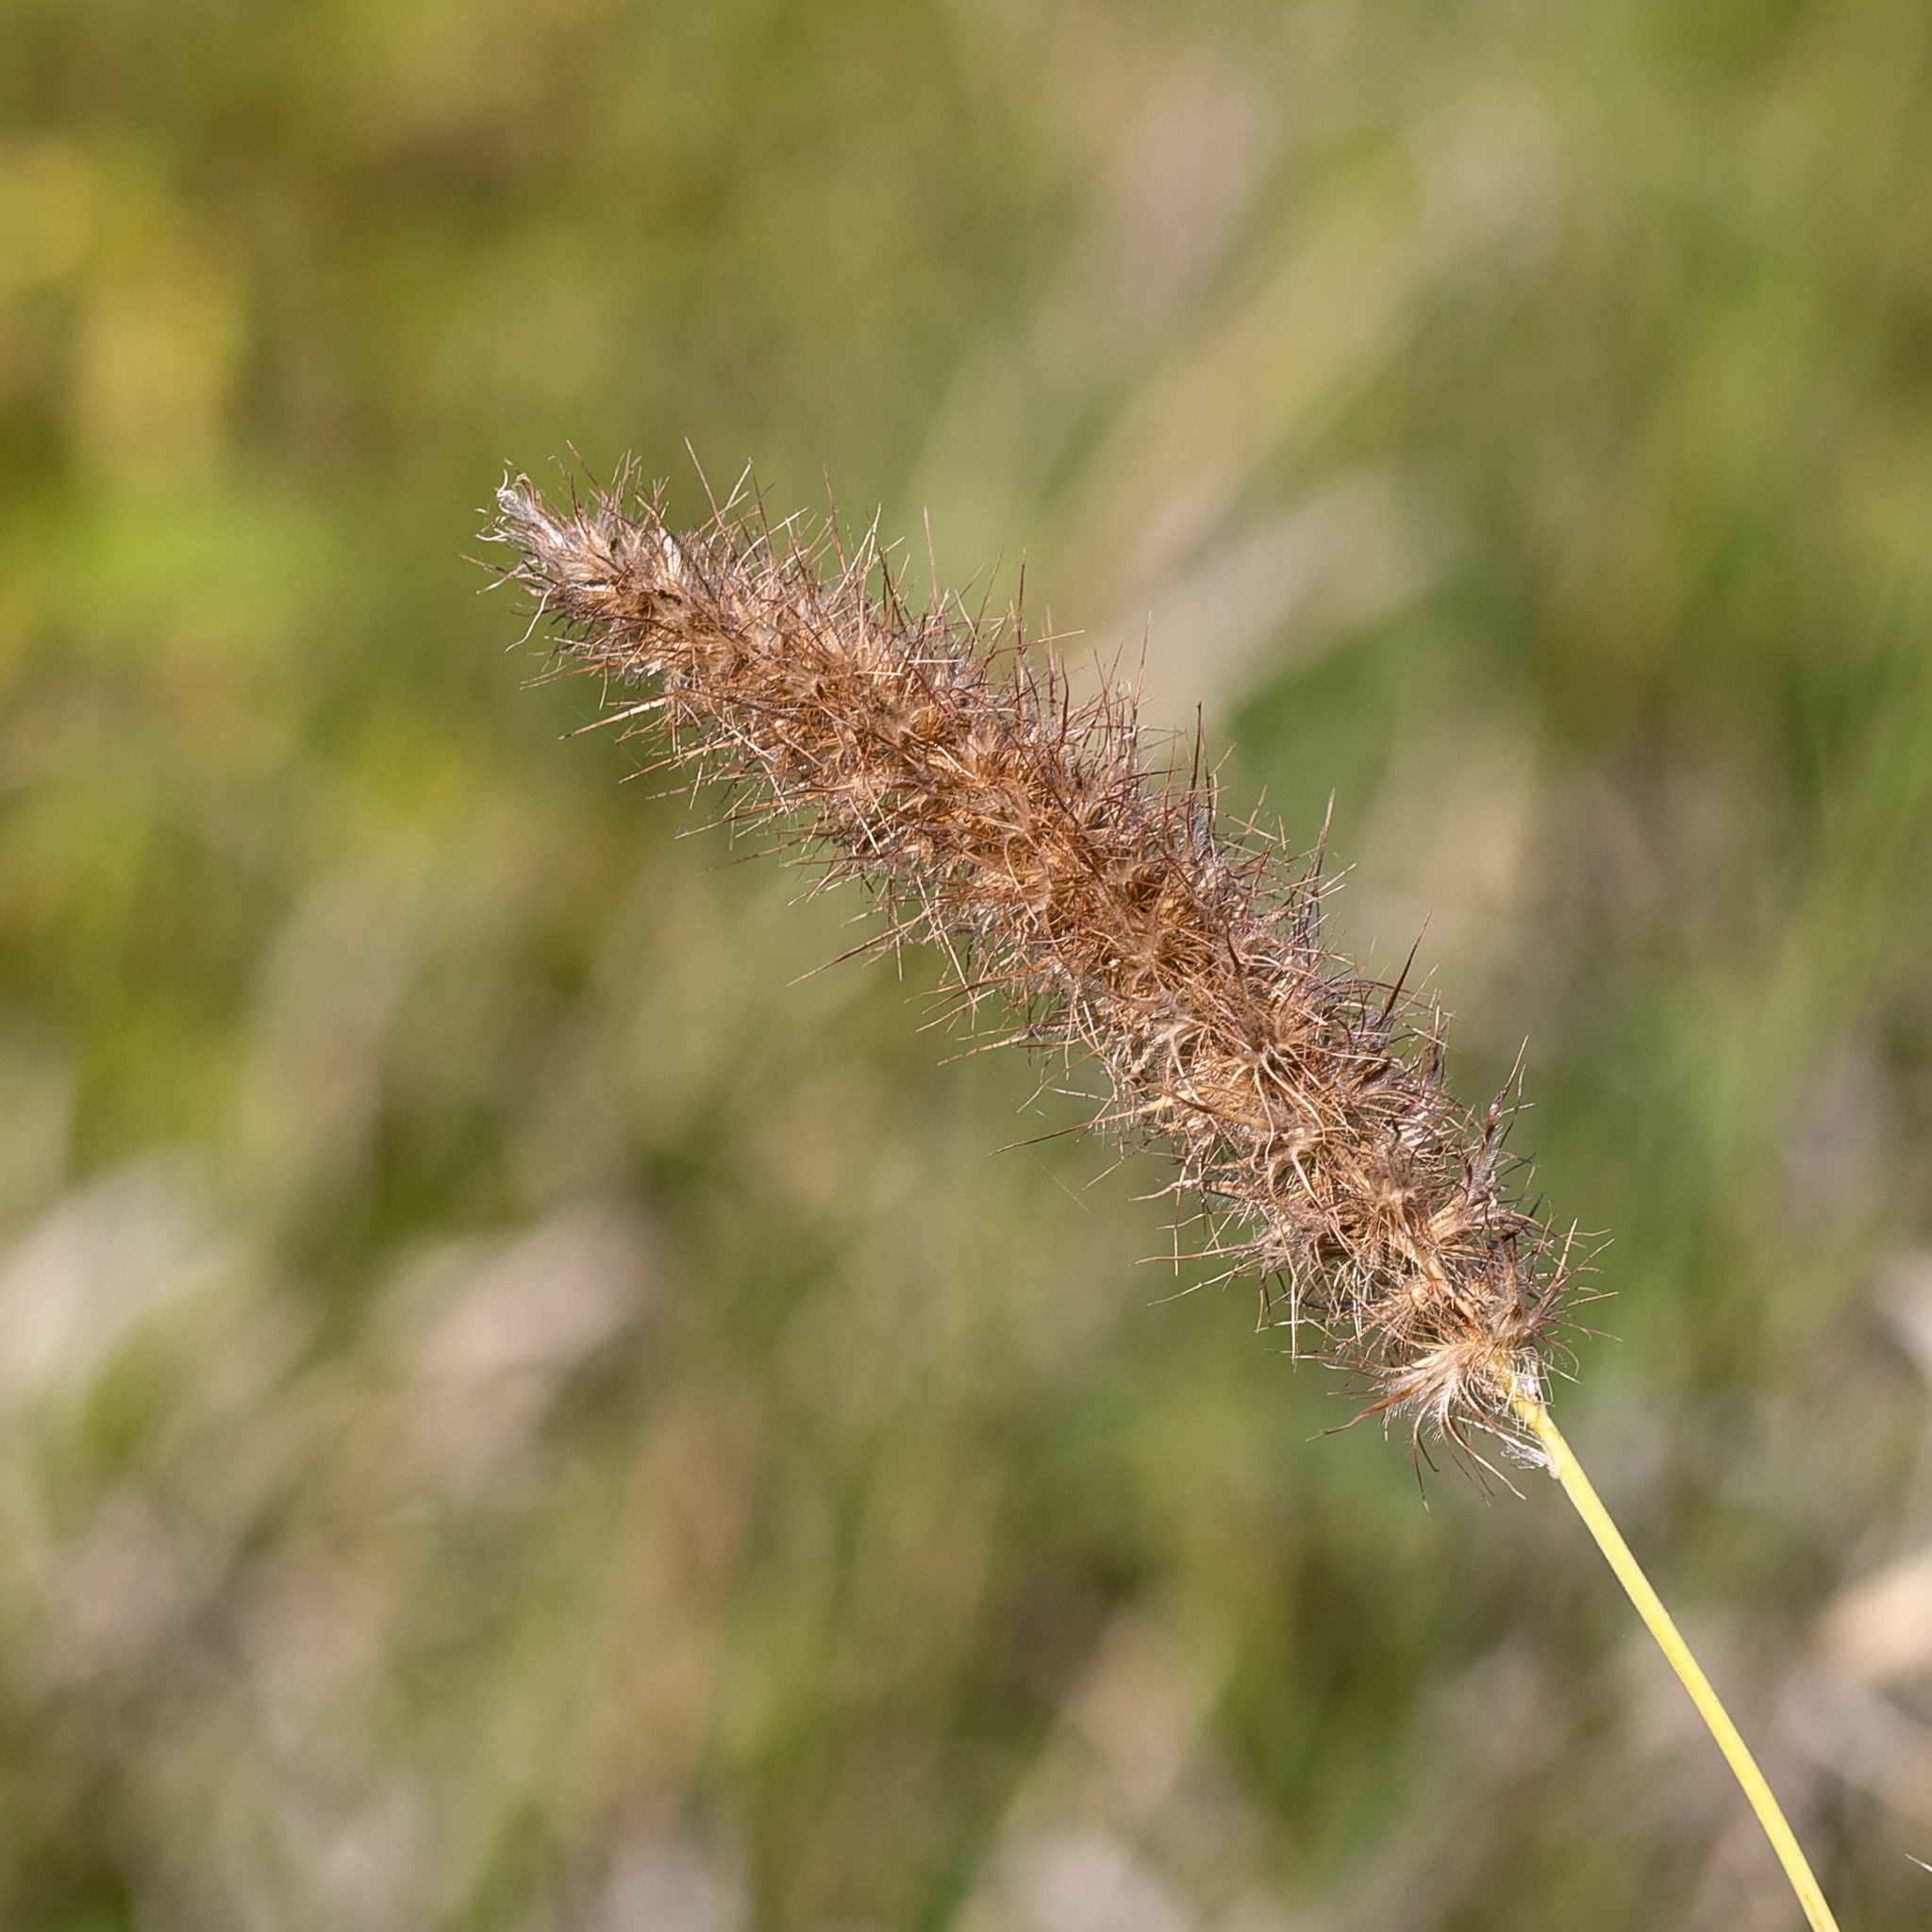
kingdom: Plantae
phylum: Tracheophyta
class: Liliopsida
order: Poales
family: Poaceae
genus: Cenchrus
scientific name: Cenchrus ciliaris
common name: Buffelgrass
